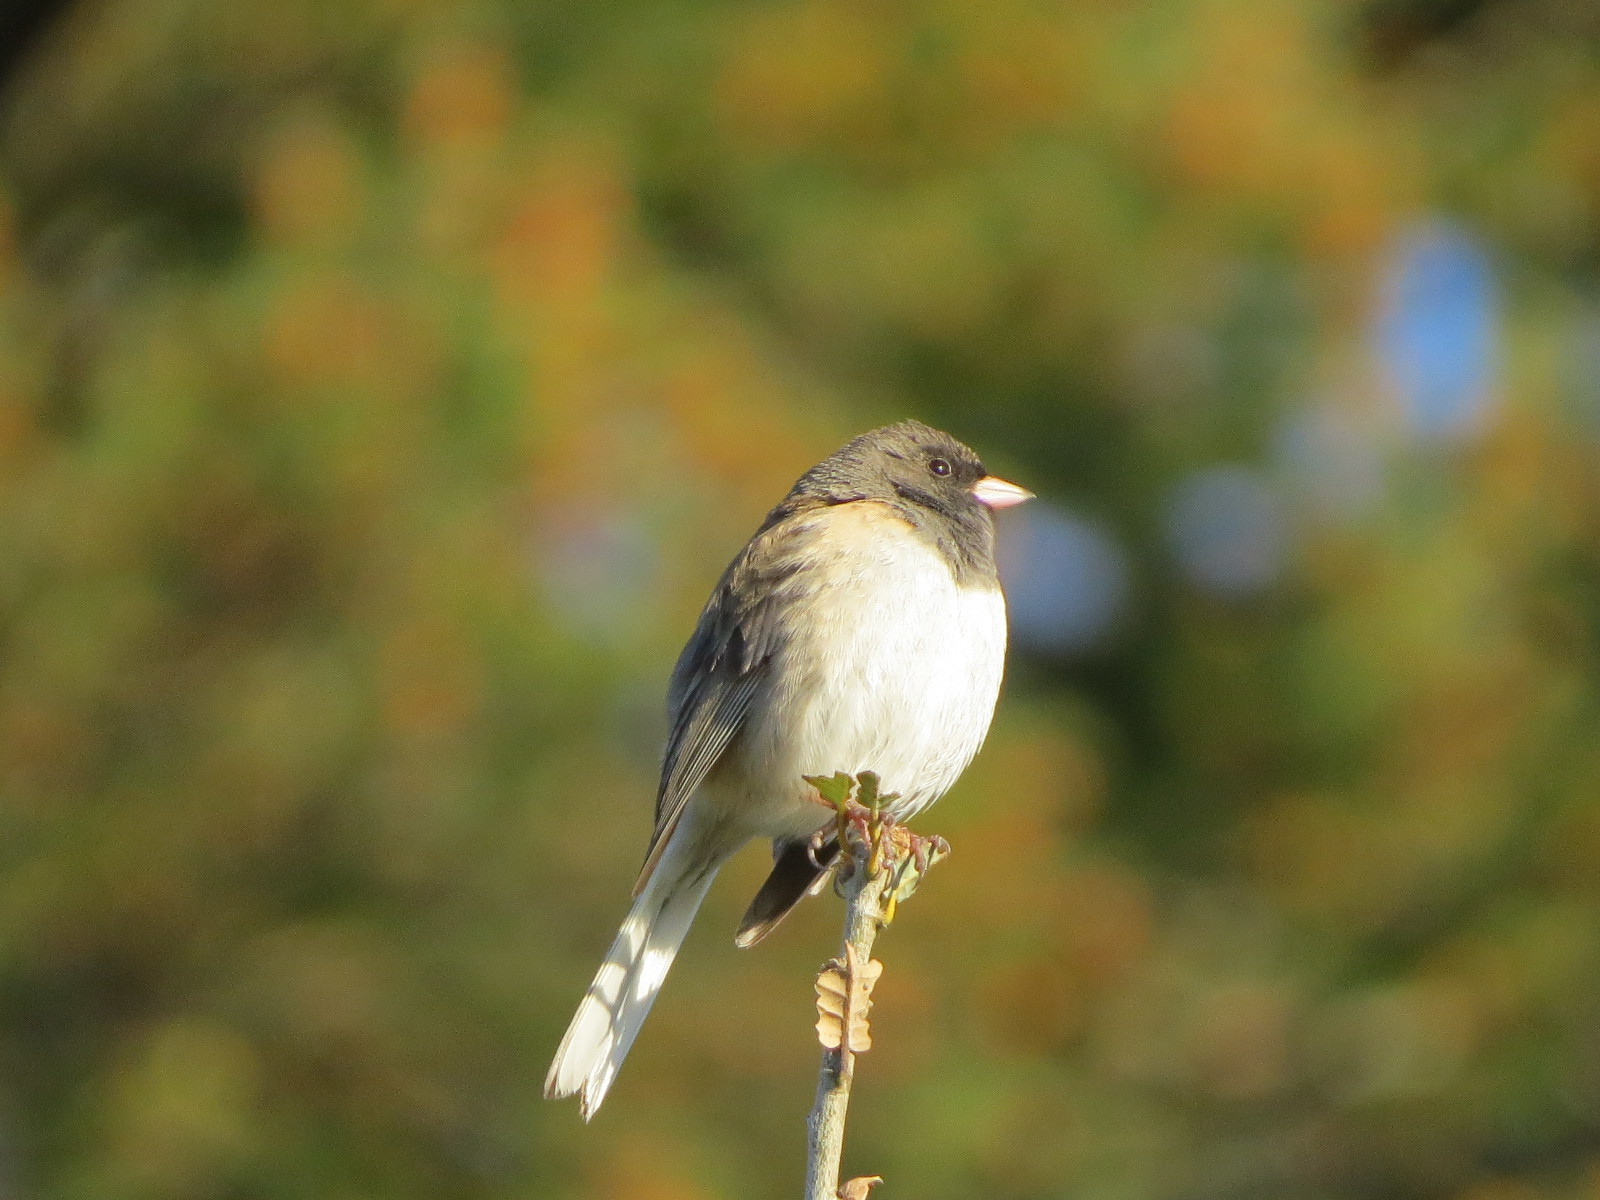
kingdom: Animalia
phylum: Chordata
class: Aves
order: Passeriformes
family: Passerellidae
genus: Junco
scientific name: Junco hyemalis
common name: Dark-eyed junco
